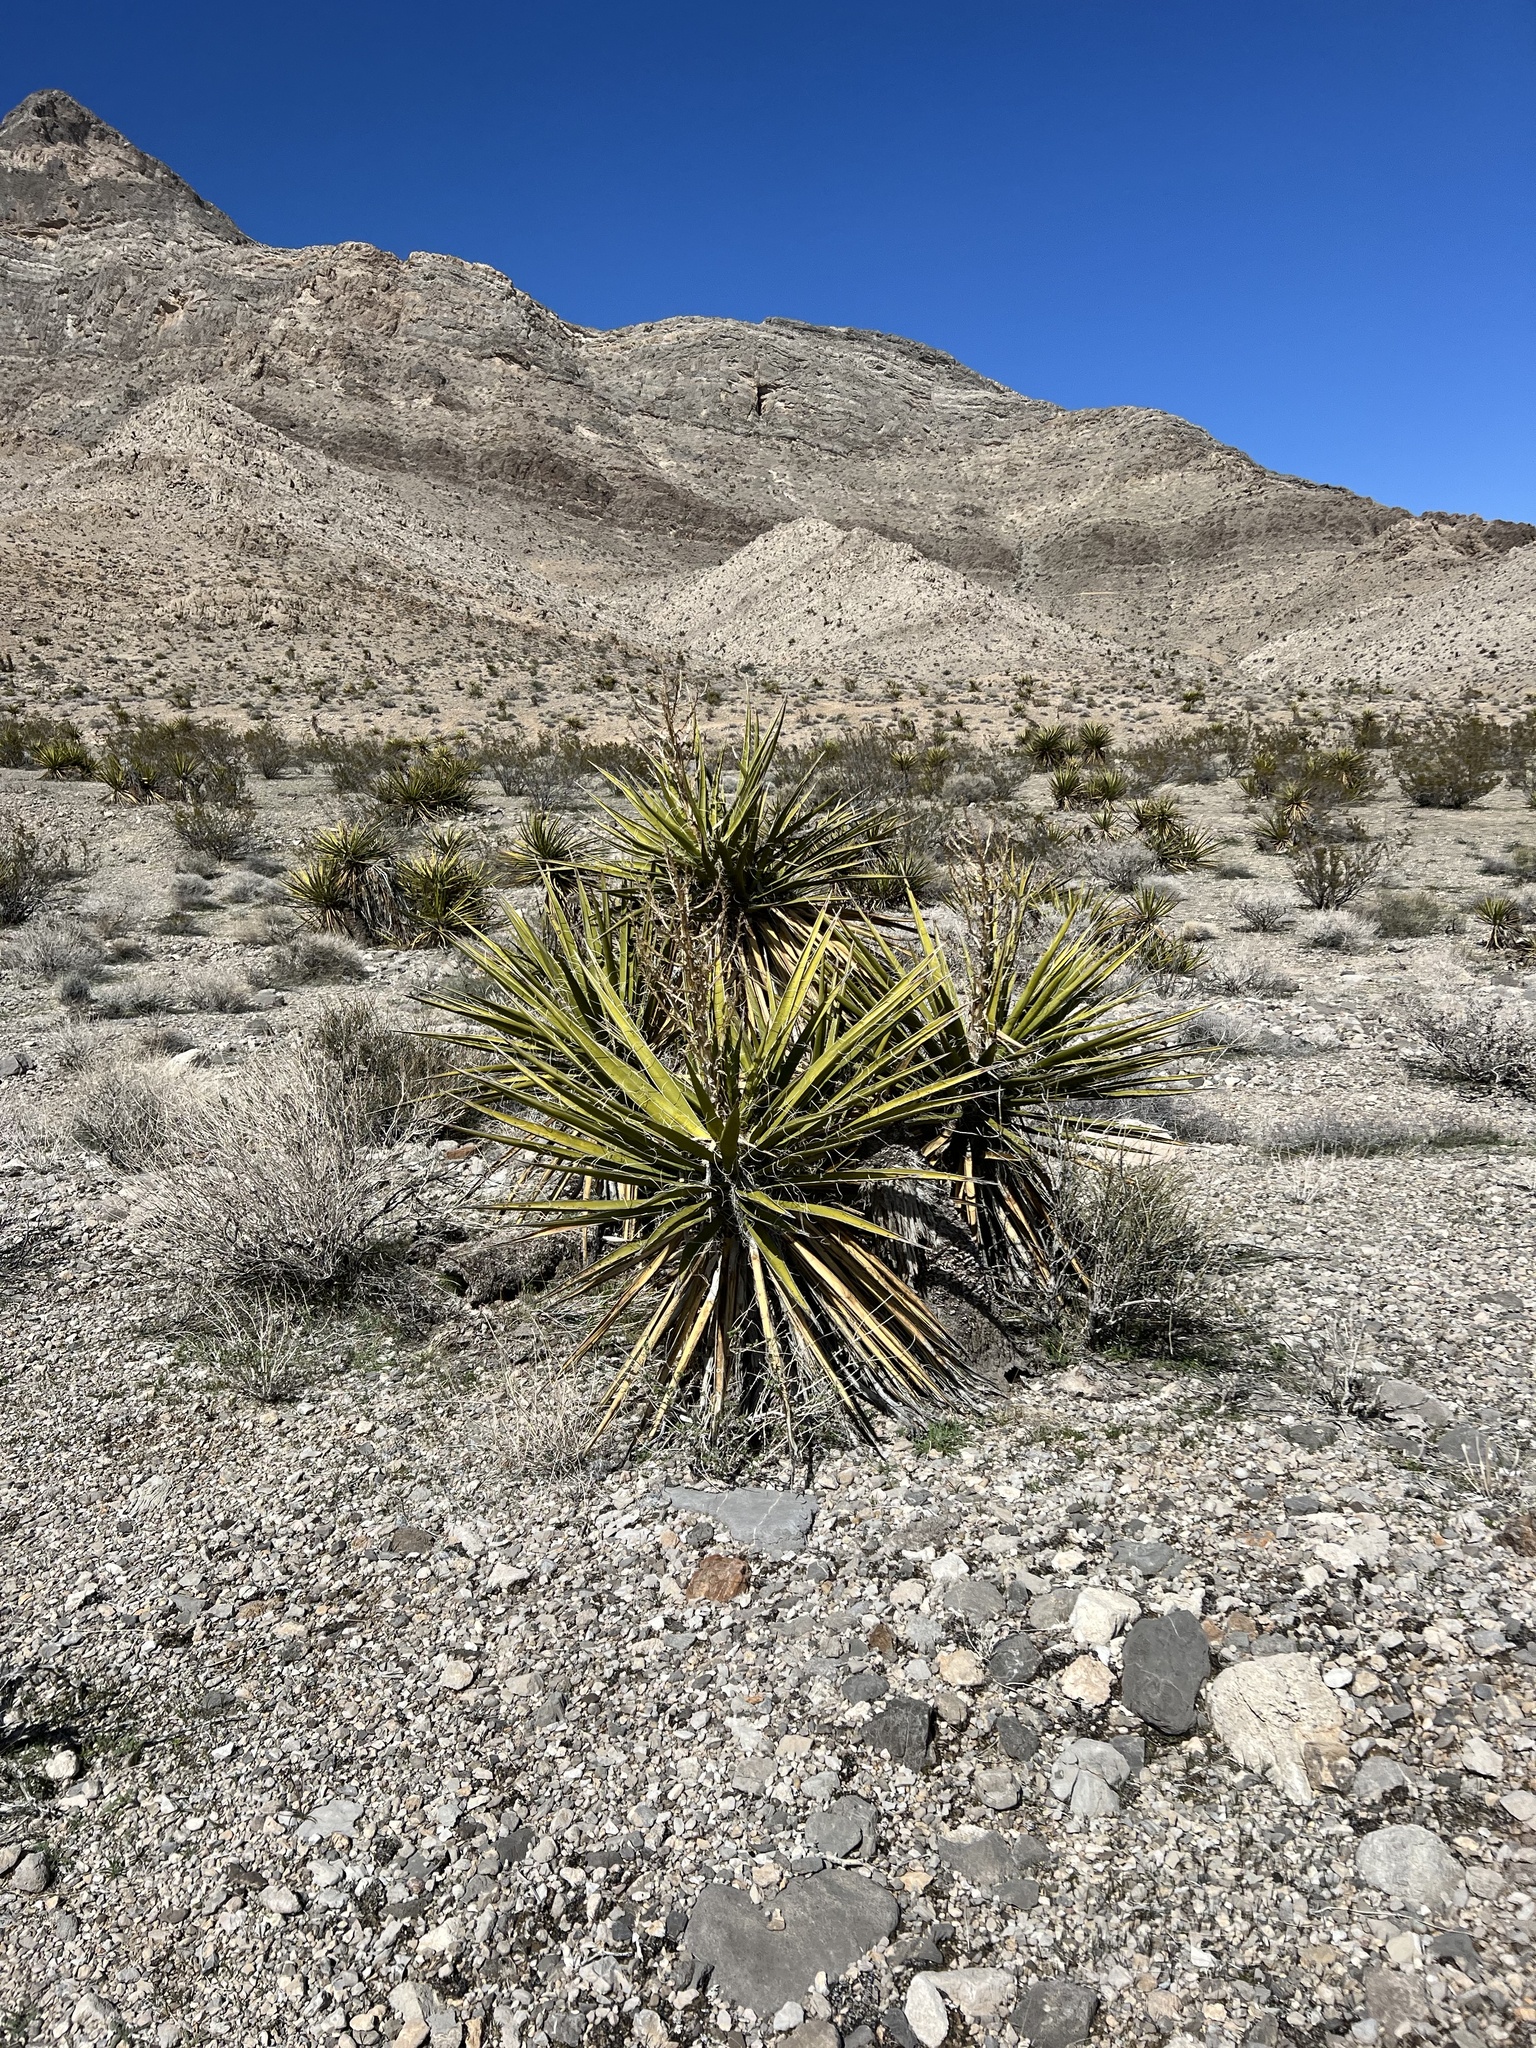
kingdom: Plantae
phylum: Tracheophyta
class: Liliopsida
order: Asparagales
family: Asparagaceae
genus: Yucca
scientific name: Yucca schidigera
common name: Mojave yucca
